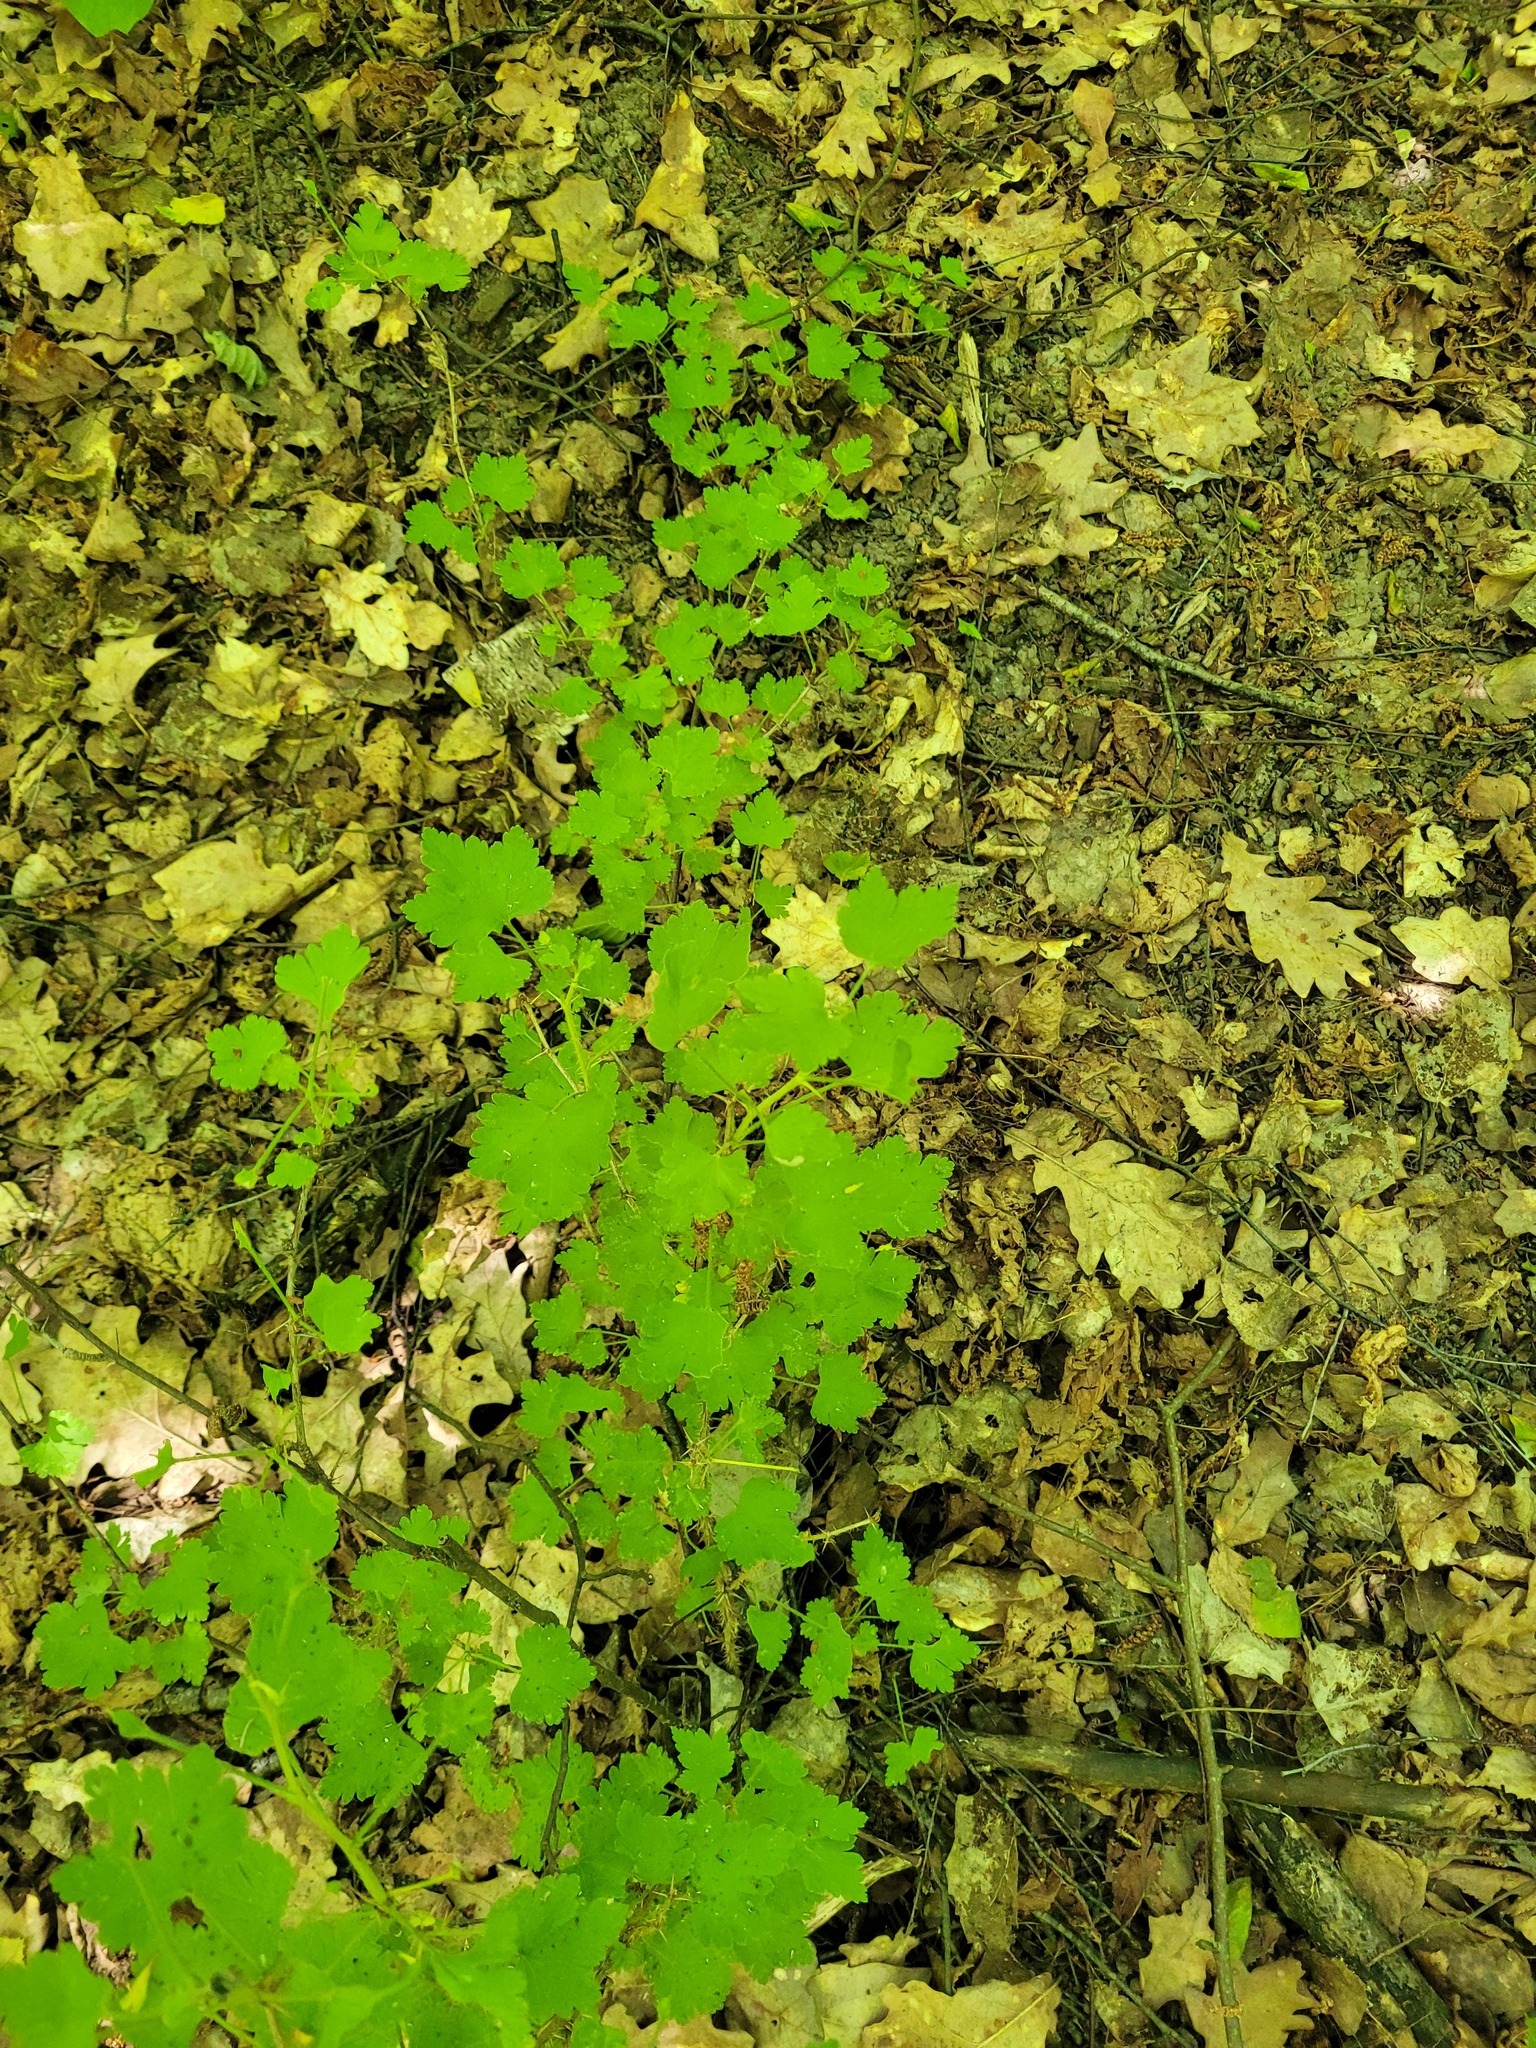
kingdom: Plantae
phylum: Tracheophyta
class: Magnoliopsida
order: Saxifragales
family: Grossulariaceae
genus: Ribes
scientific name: Ribes uva-crispa
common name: Gooseberry
